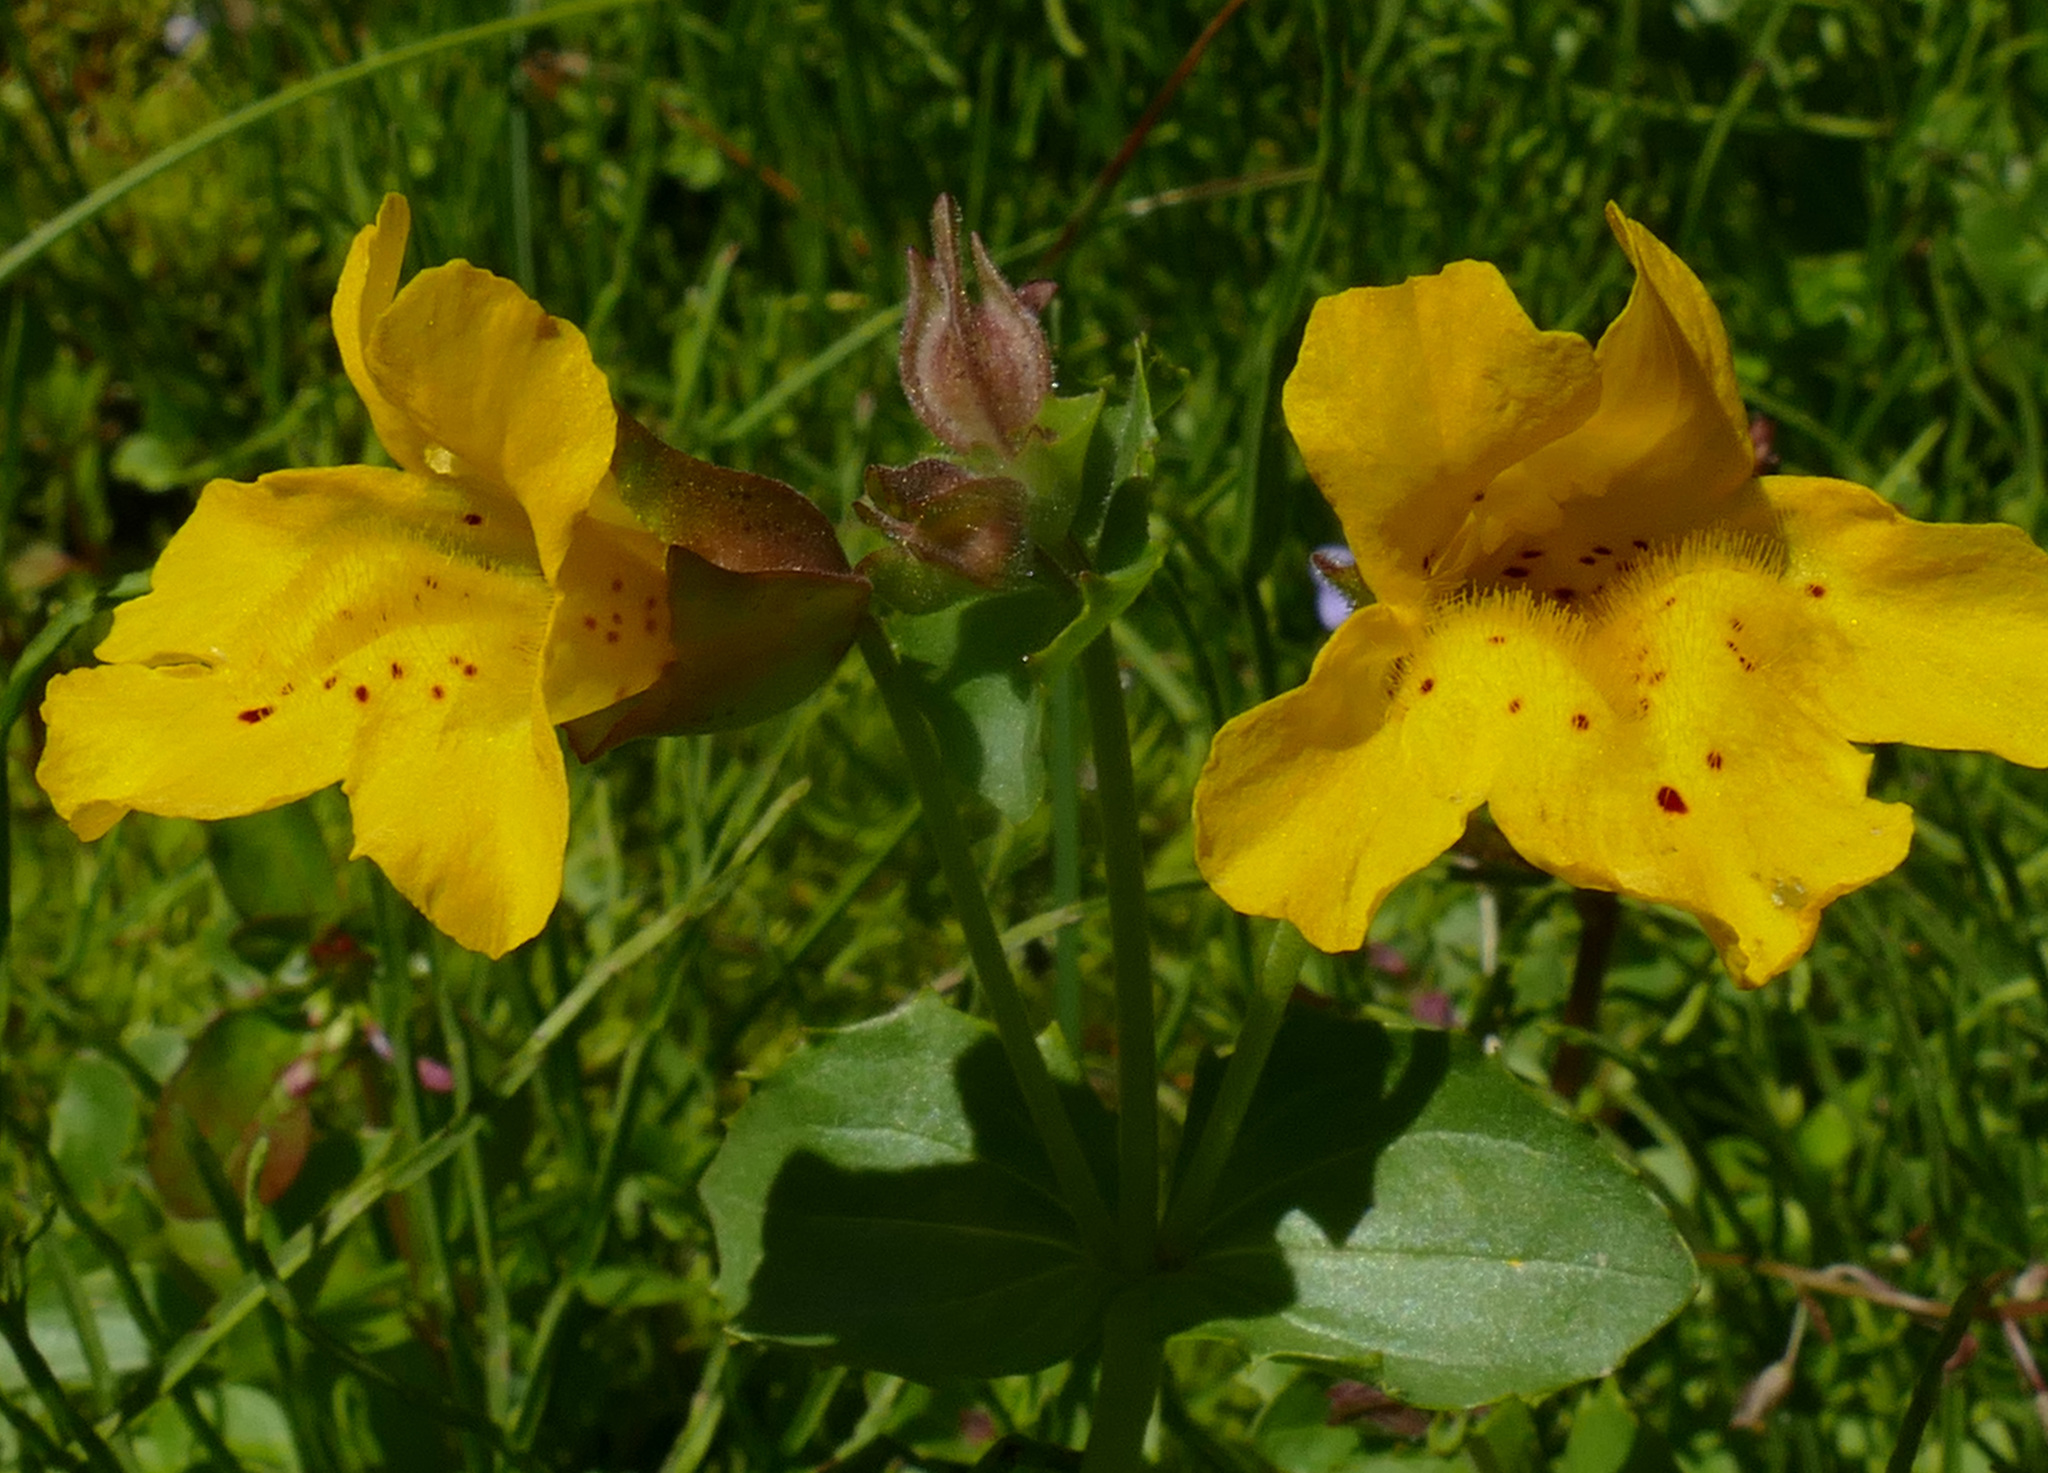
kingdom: Plantae
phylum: Tracheophyta
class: Magnoliopsida
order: Lamiales
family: Phrymaceae
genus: Erythranthe
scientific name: Erythranthe guttata
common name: Monkeyflower
